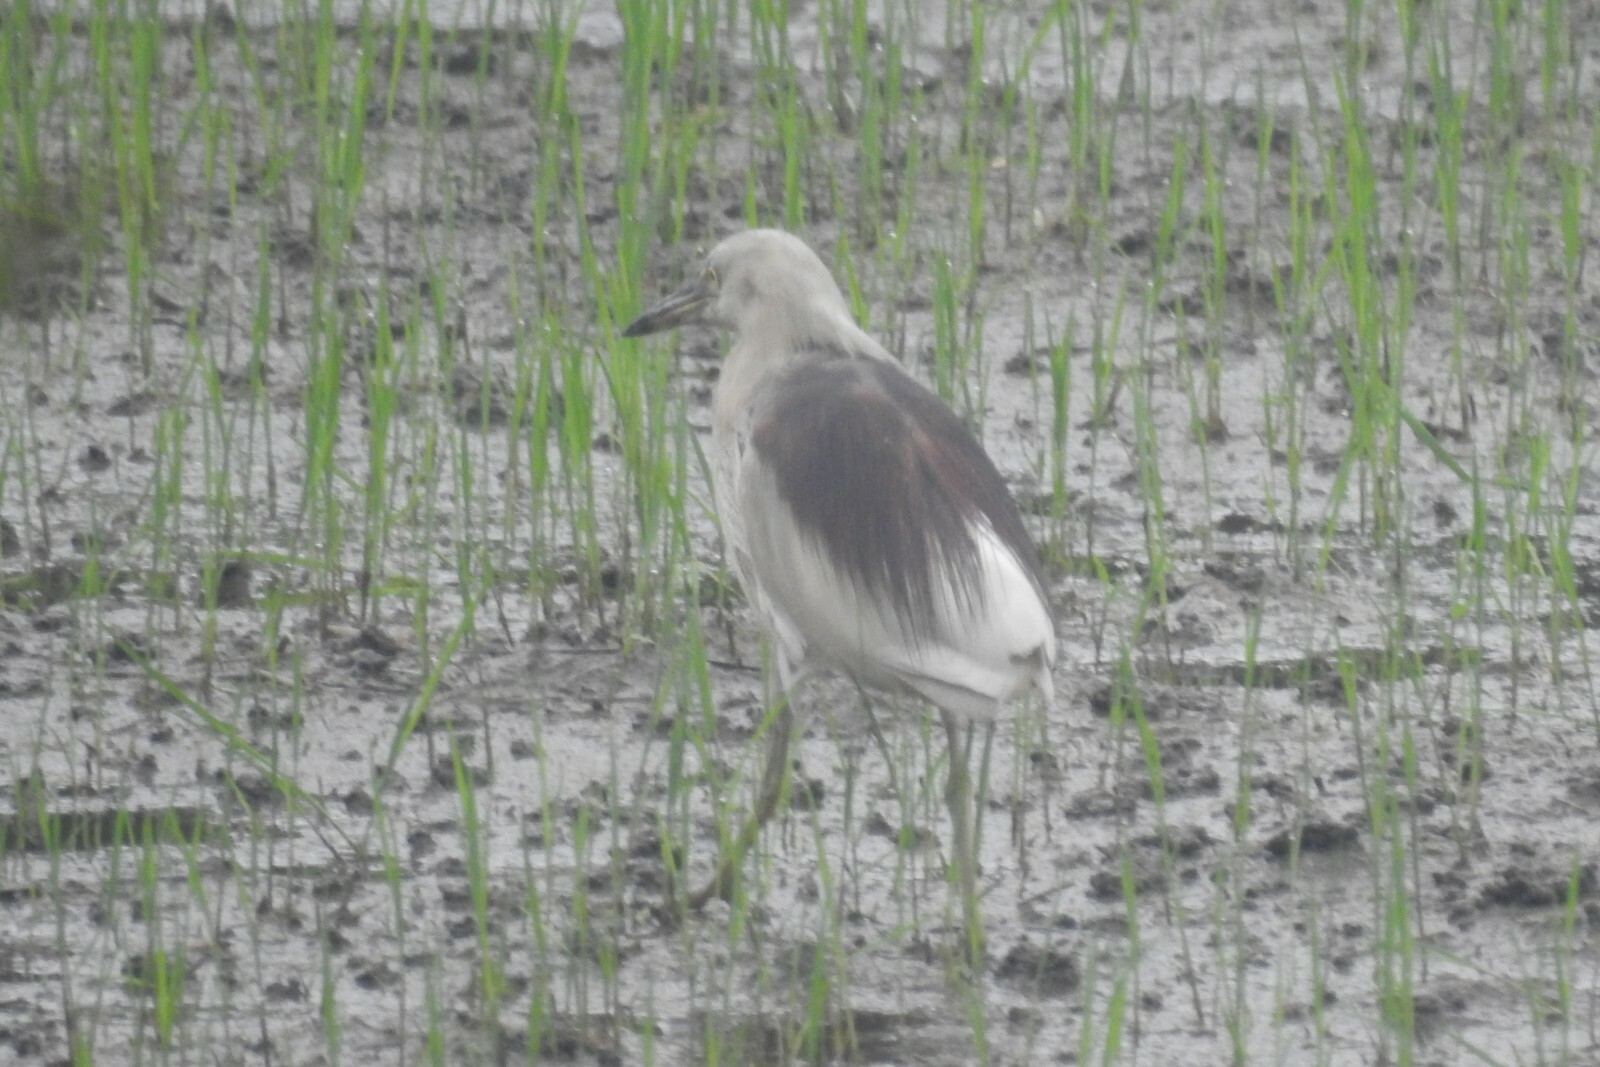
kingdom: Animalia
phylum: Chordata
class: Aves
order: Pelecaniformes
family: Ardeidae
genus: Ardeola
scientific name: Ardeola grayii
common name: Indian pond heron
